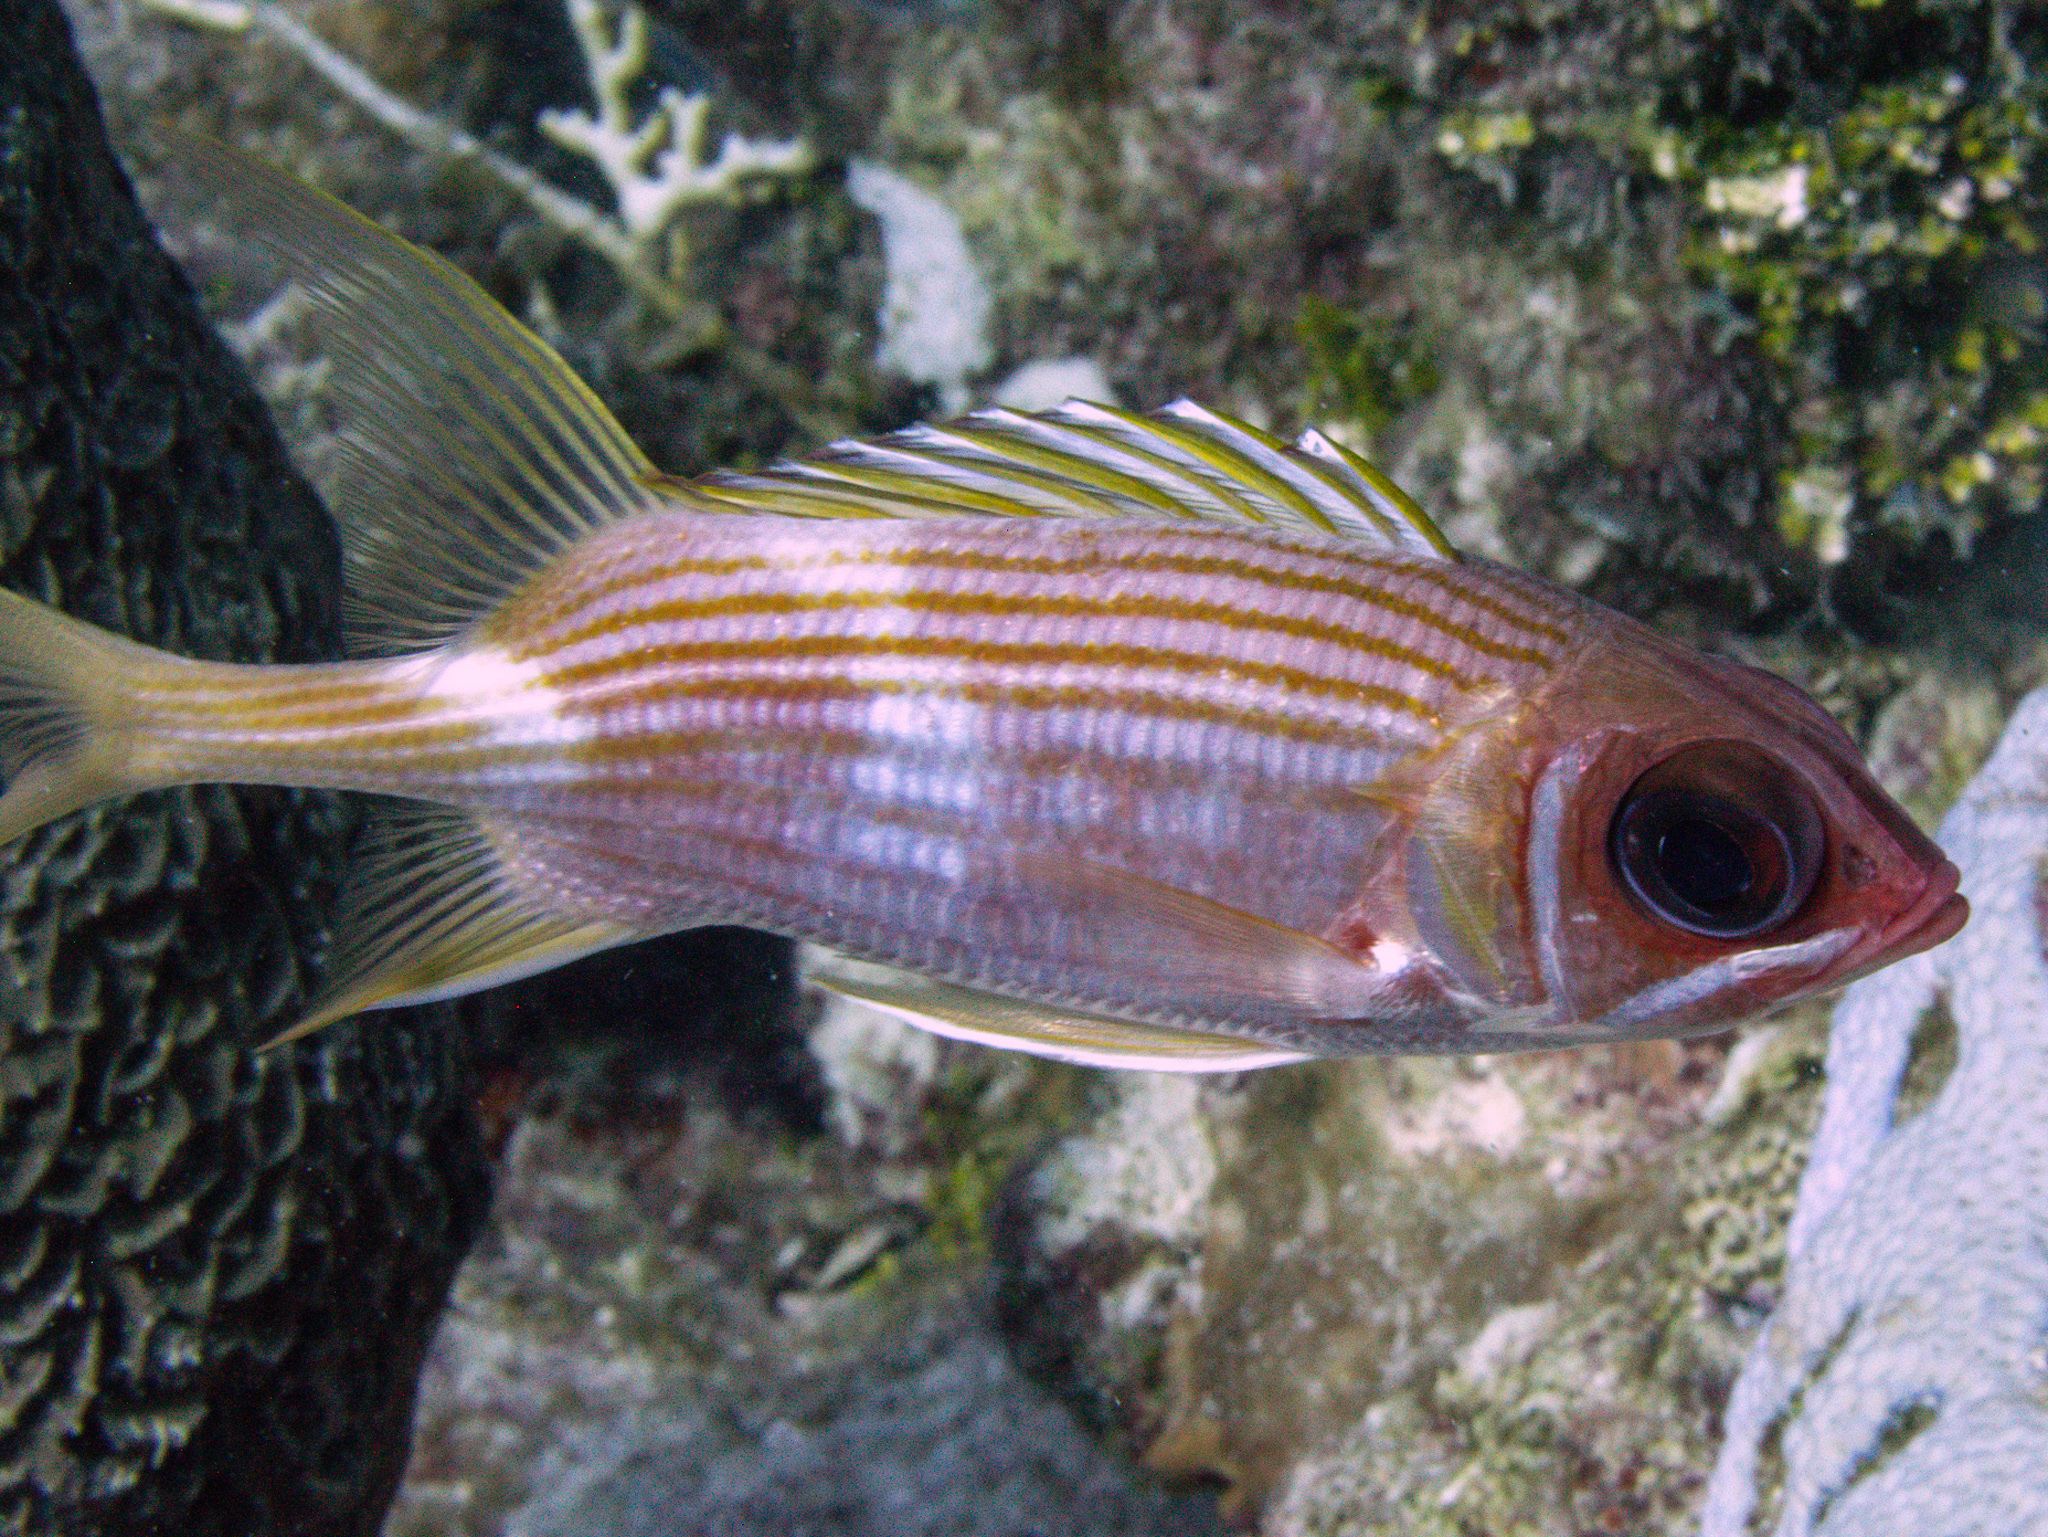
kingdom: Animalia
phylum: Chordata
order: Beryciformes
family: Holocentridae
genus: Holocentrus
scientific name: Holocentrus rufus
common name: Longspine squirrelfish
